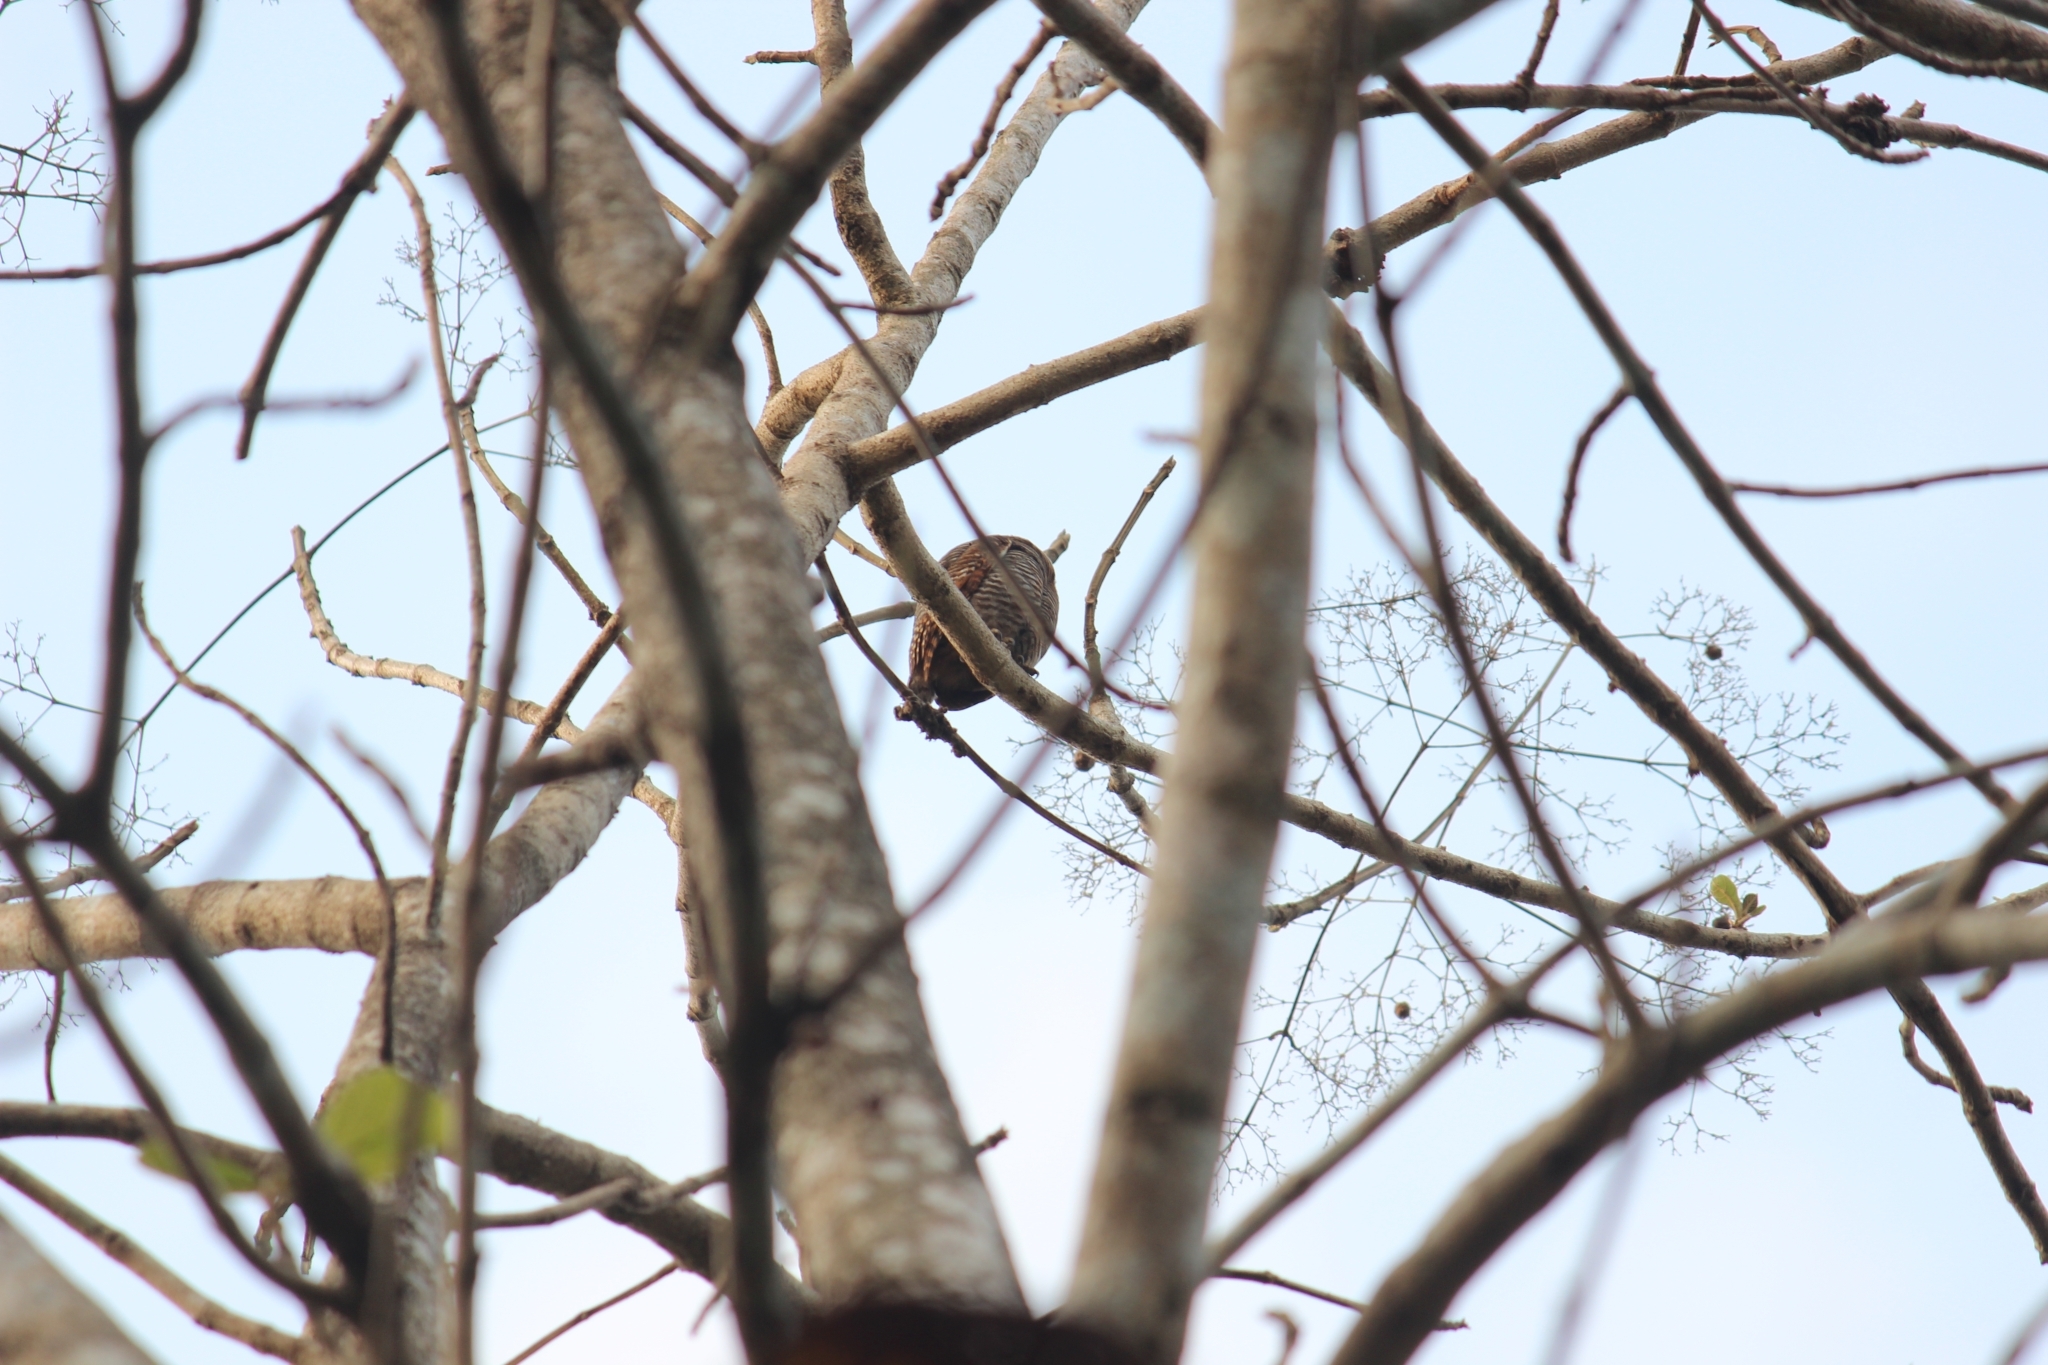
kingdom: Animalia
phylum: Chordata
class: Aves
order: Strigiformes
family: Strigidae
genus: Glaucidium
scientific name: Glaucidium radiatum
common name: Jungle owlet
